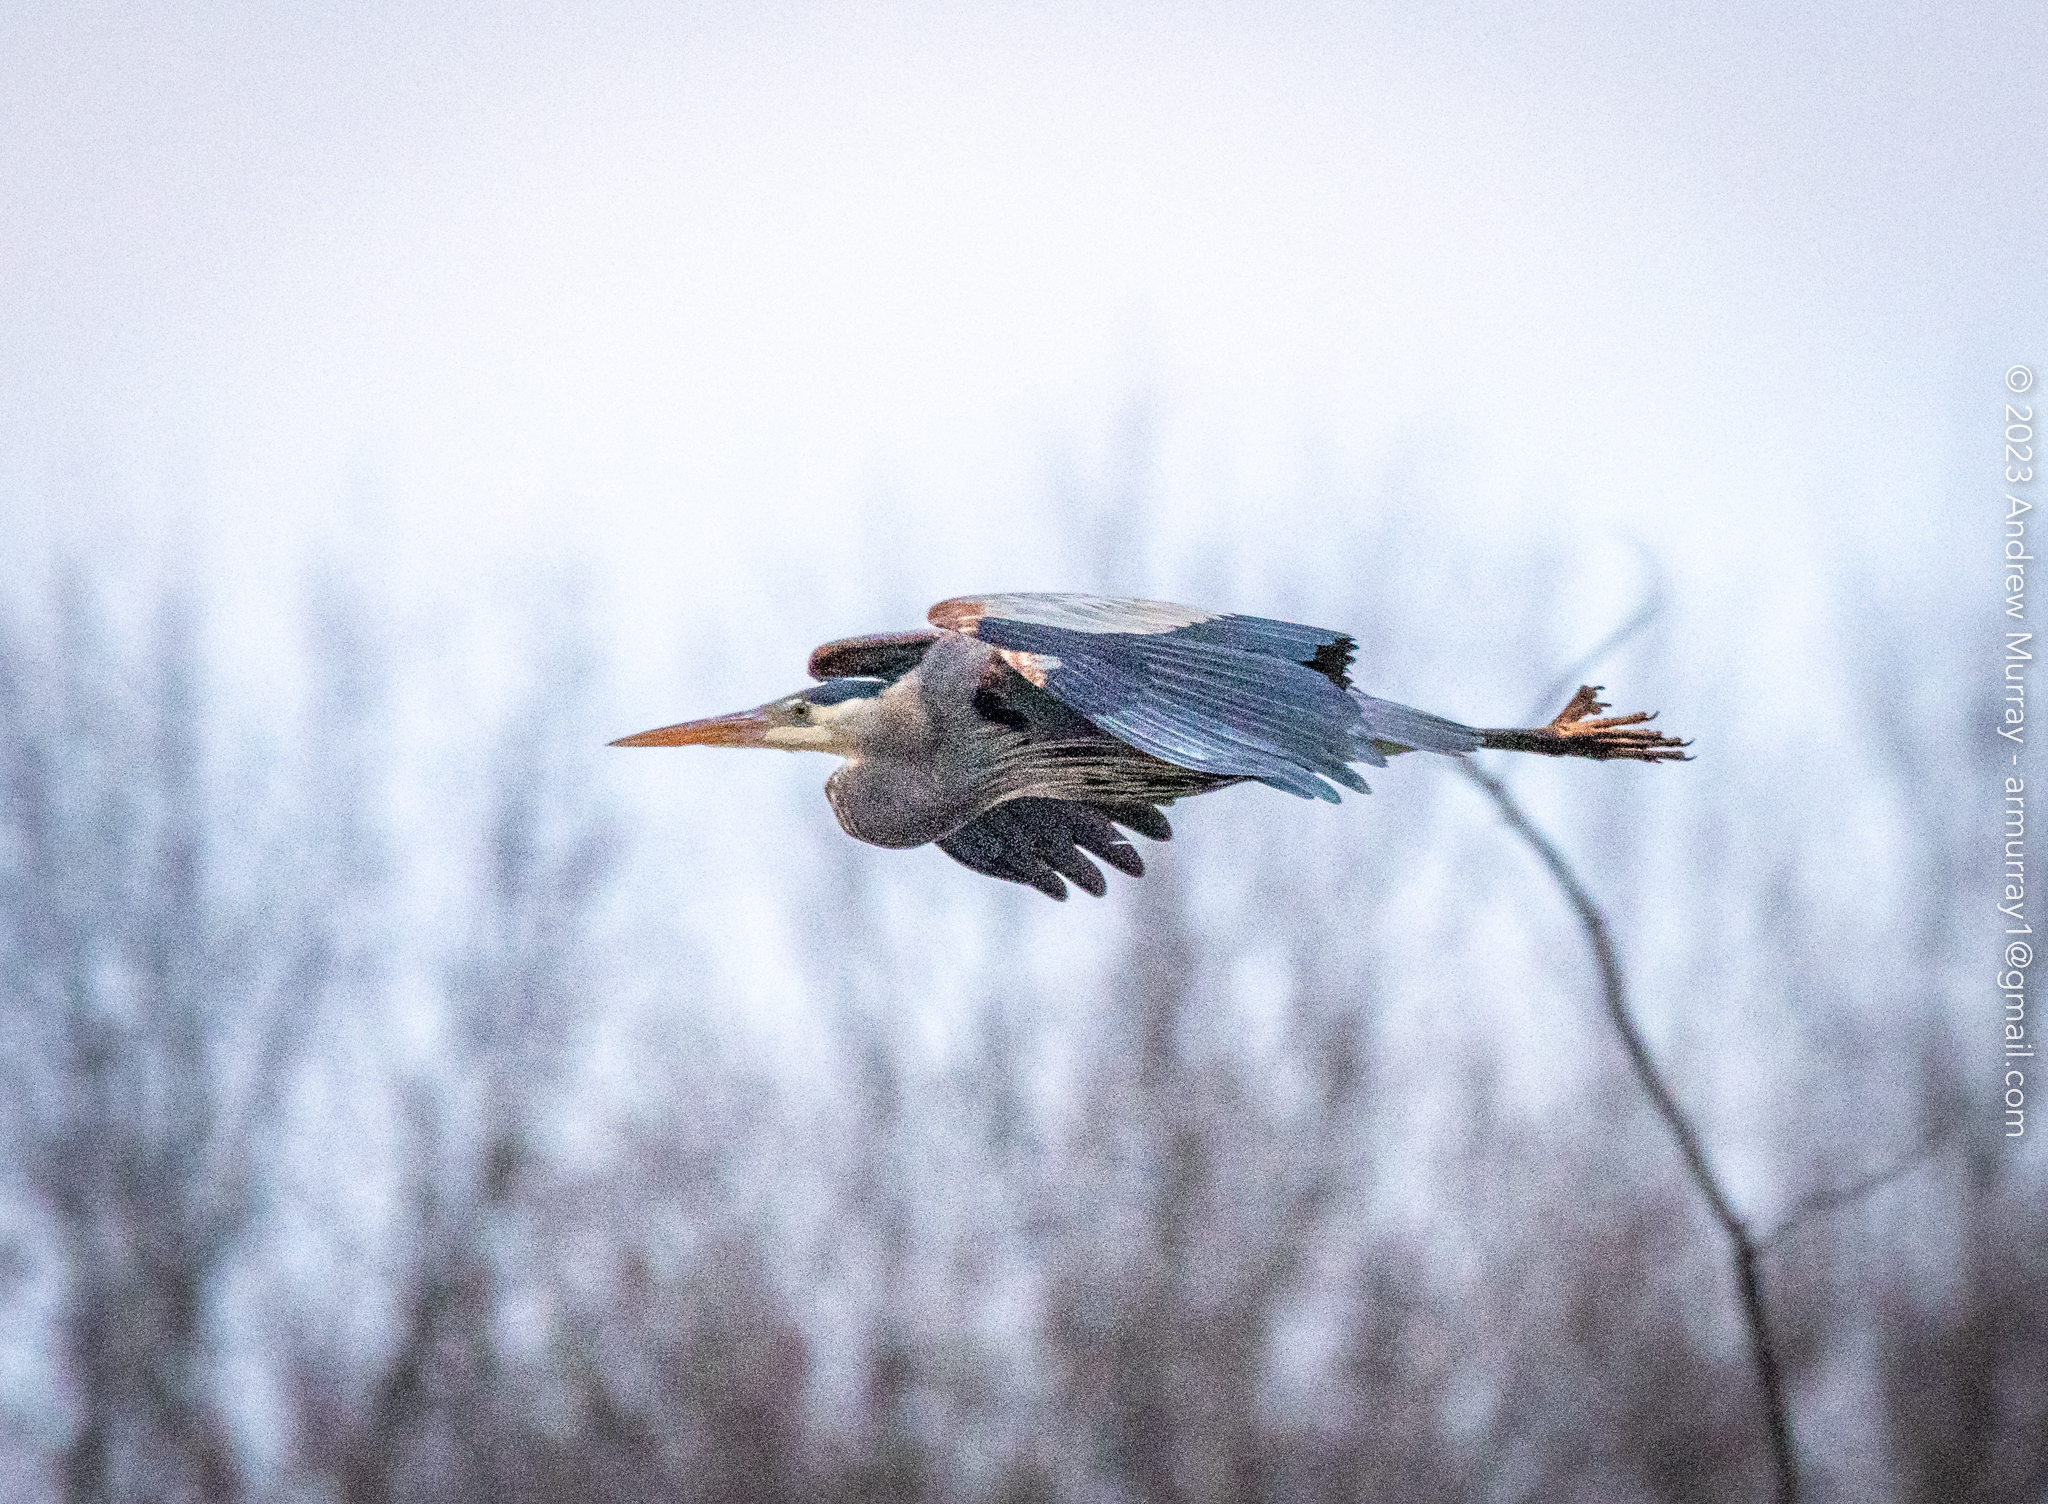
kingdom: Animalia
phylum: Chordata
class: Aves
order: Pelecaniformes
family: Ardeidae
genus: Ardea
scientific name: Ardea herodias
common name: Great blue heron
